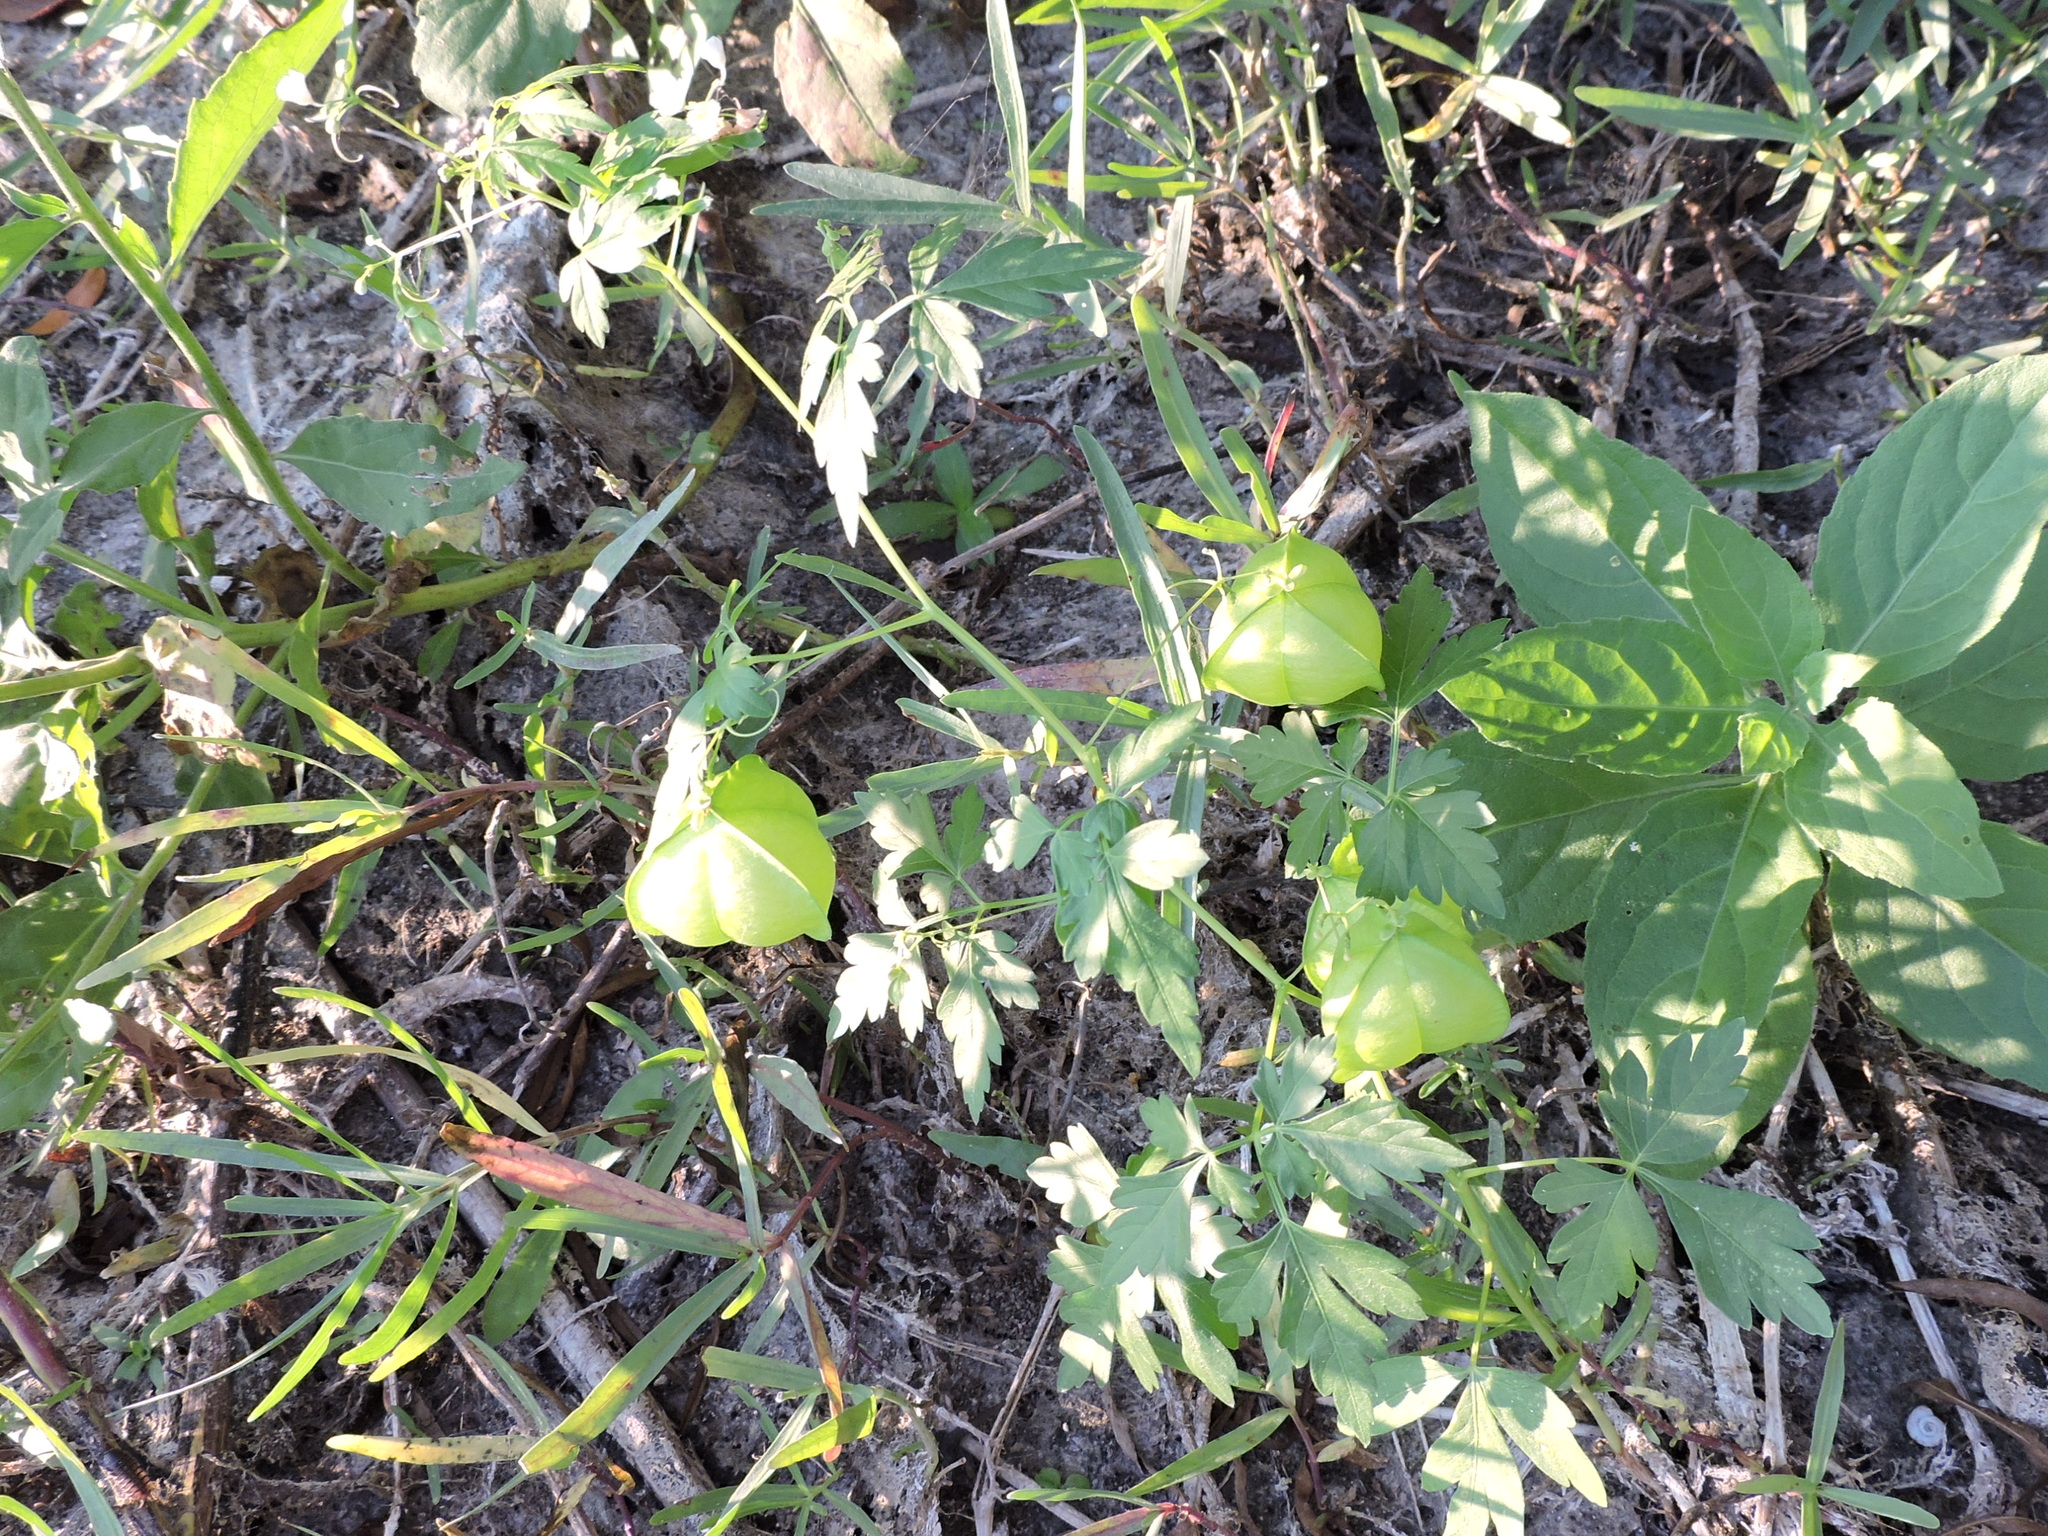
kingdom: Plantae
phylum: Tracheophyta
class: Magnoliopsida
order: Sapindales
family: Sapindaceae
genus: Cardiospermum
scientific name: Cardiospermum halicacabum
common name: Balloon vine
